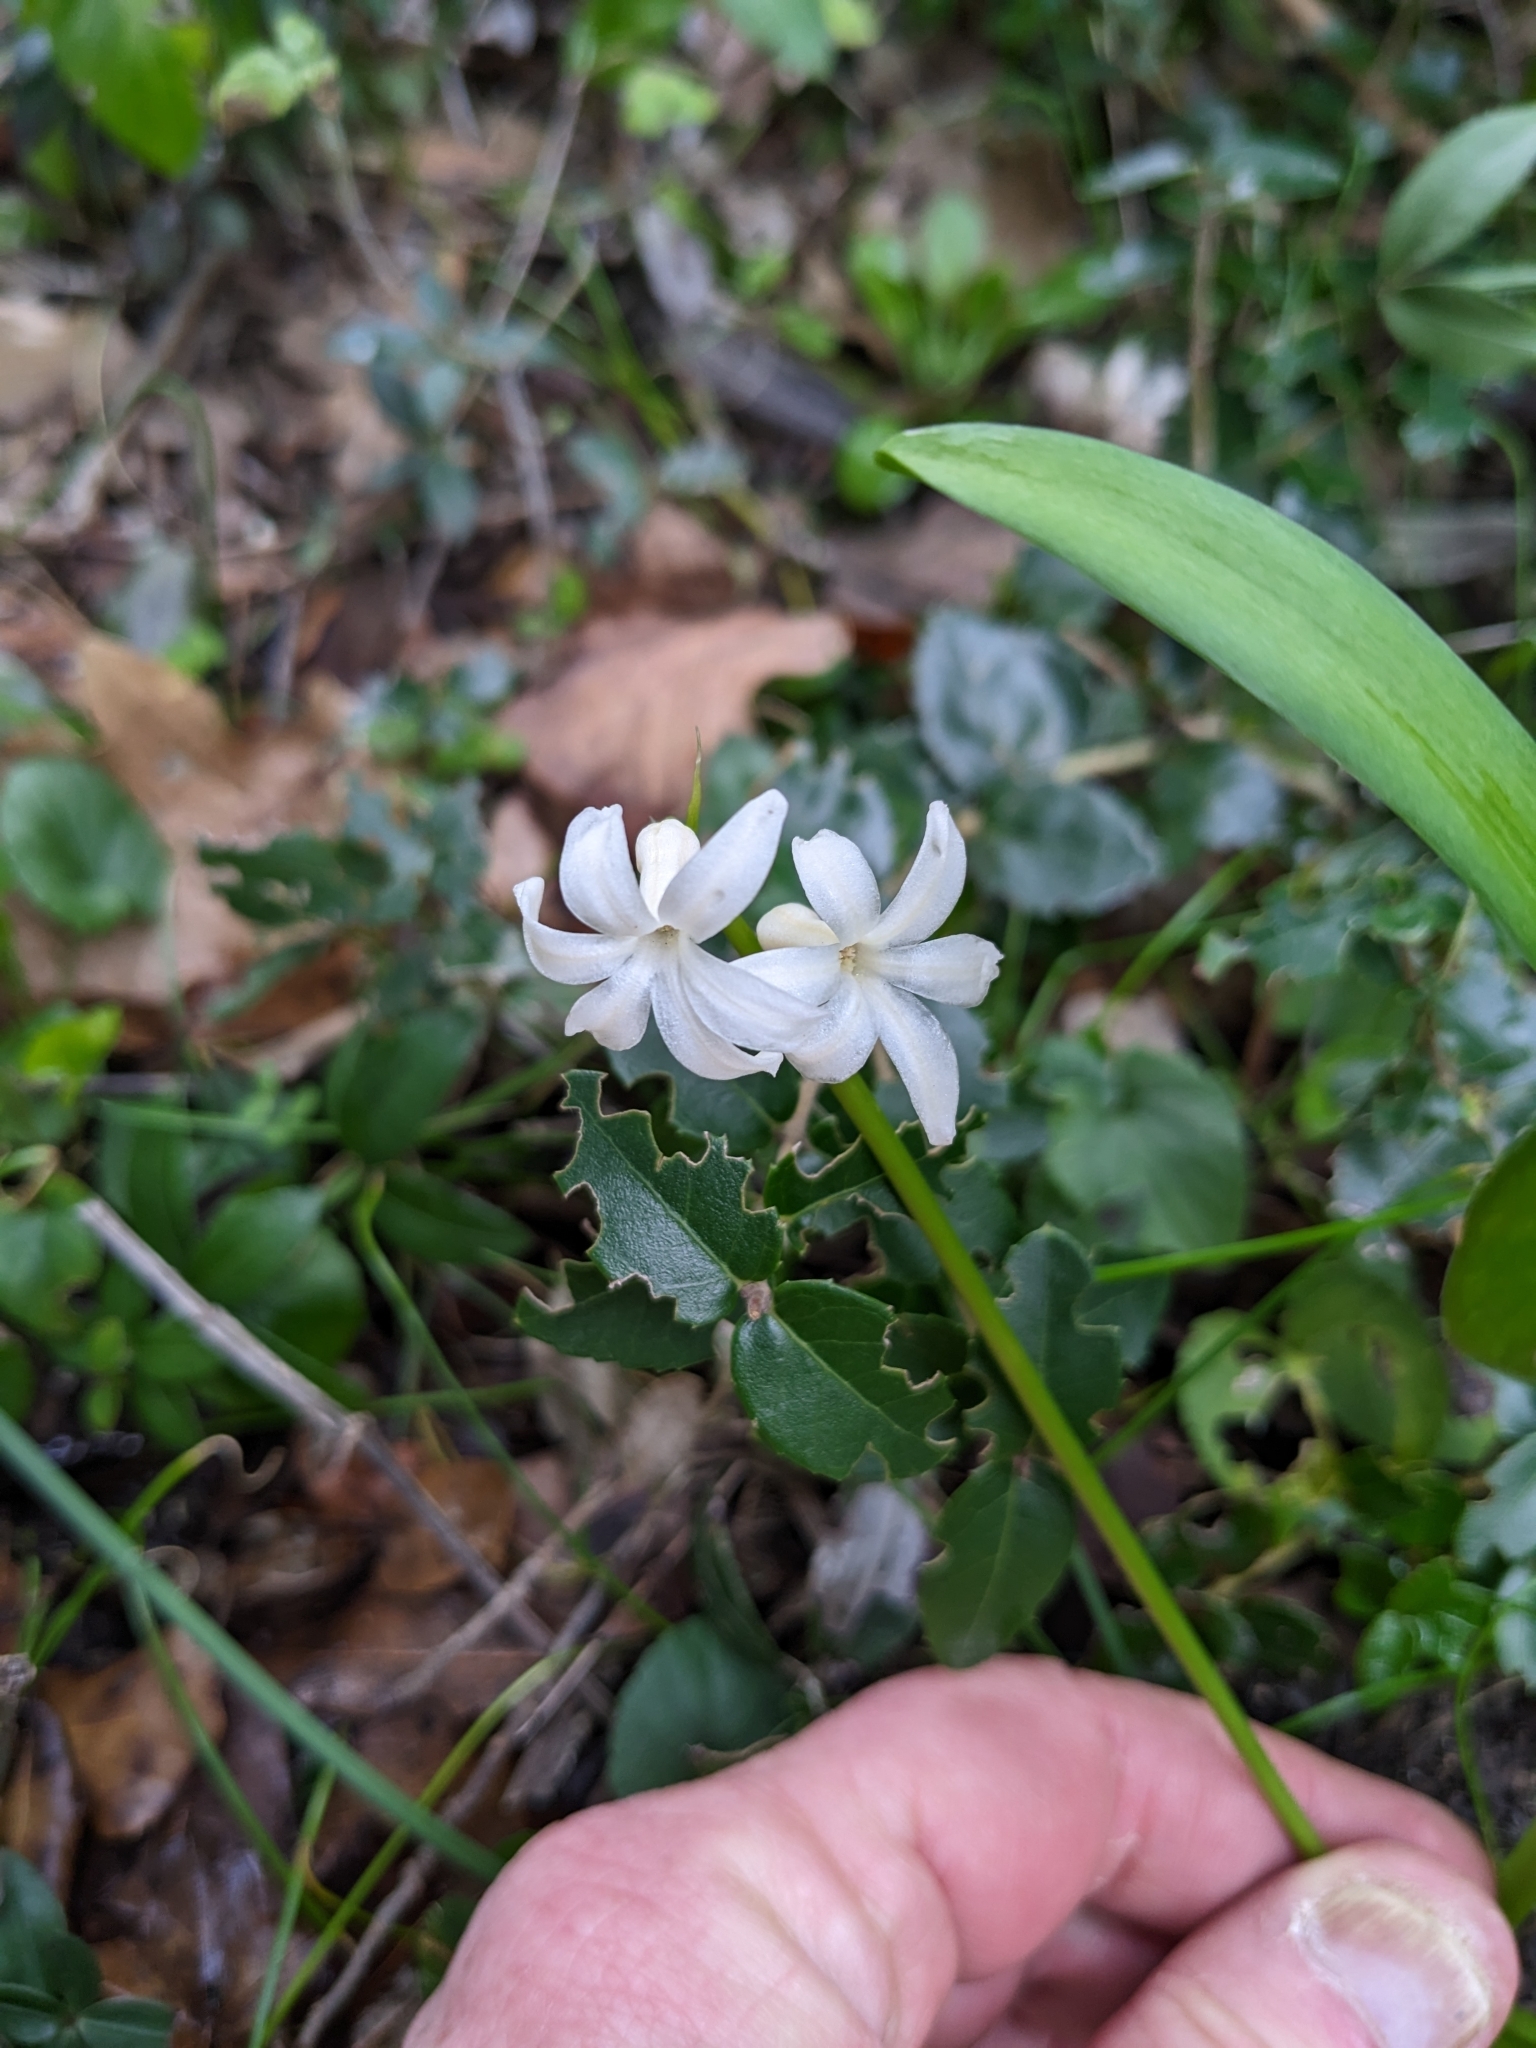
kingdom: Plantae
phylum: Tracheophyta
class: Liliopsida
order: Asparagales
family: Asparagaceae
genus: Hyacinthus
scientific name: Hyacinthus orientalis
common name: Hyacinth
